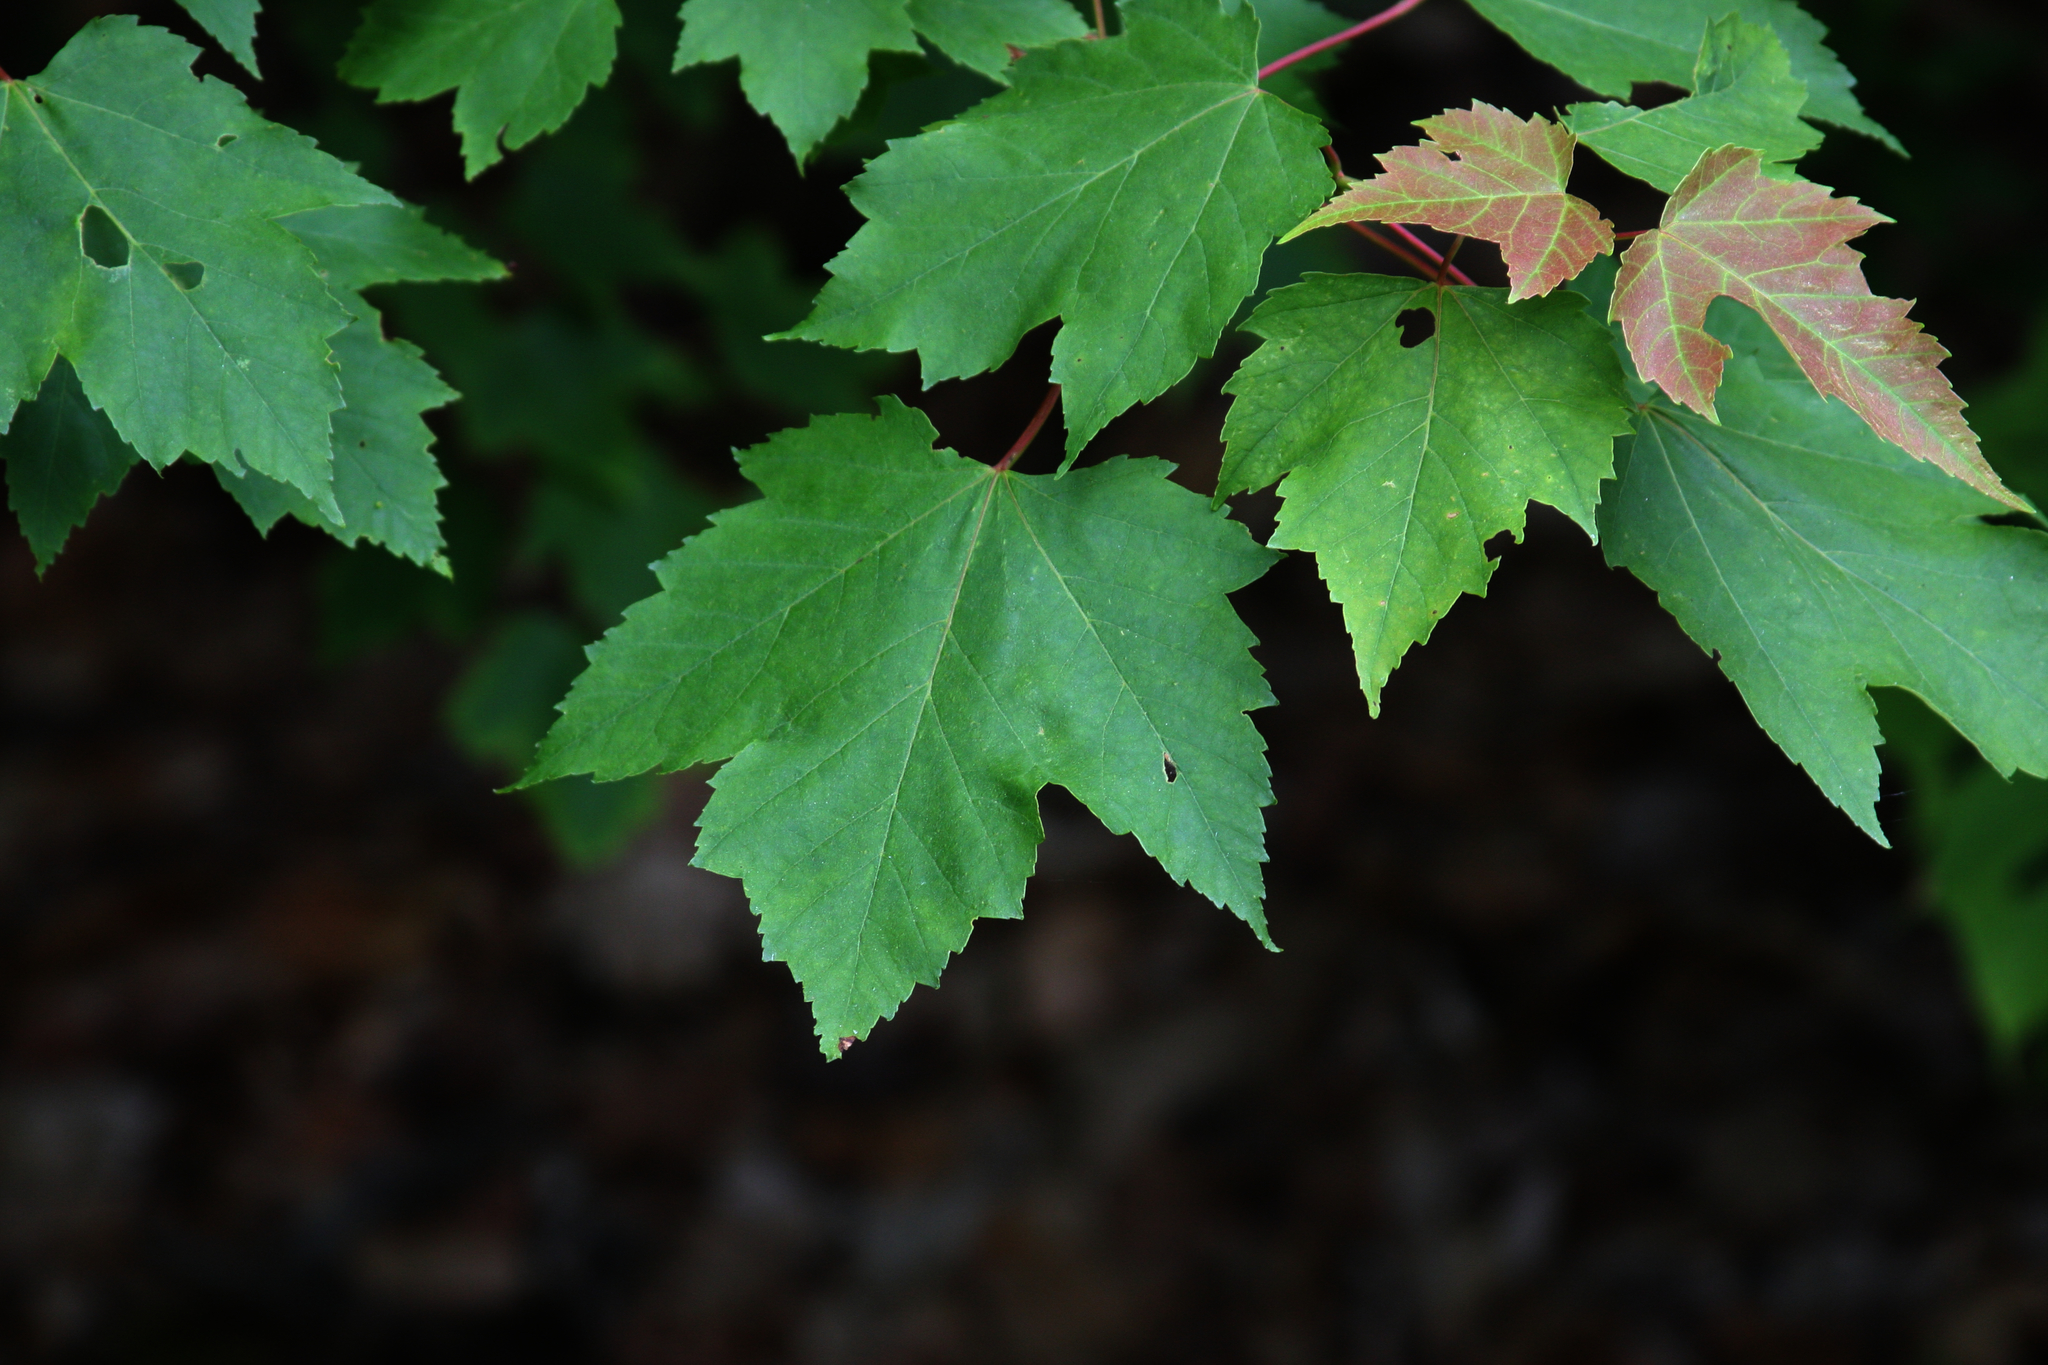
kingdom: Plantae
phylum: Tracheophyta
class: Magnoliopsida
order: Sapindales
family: Sapindaceae
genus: Acer
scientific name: Acer rubrum
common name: Red maple
